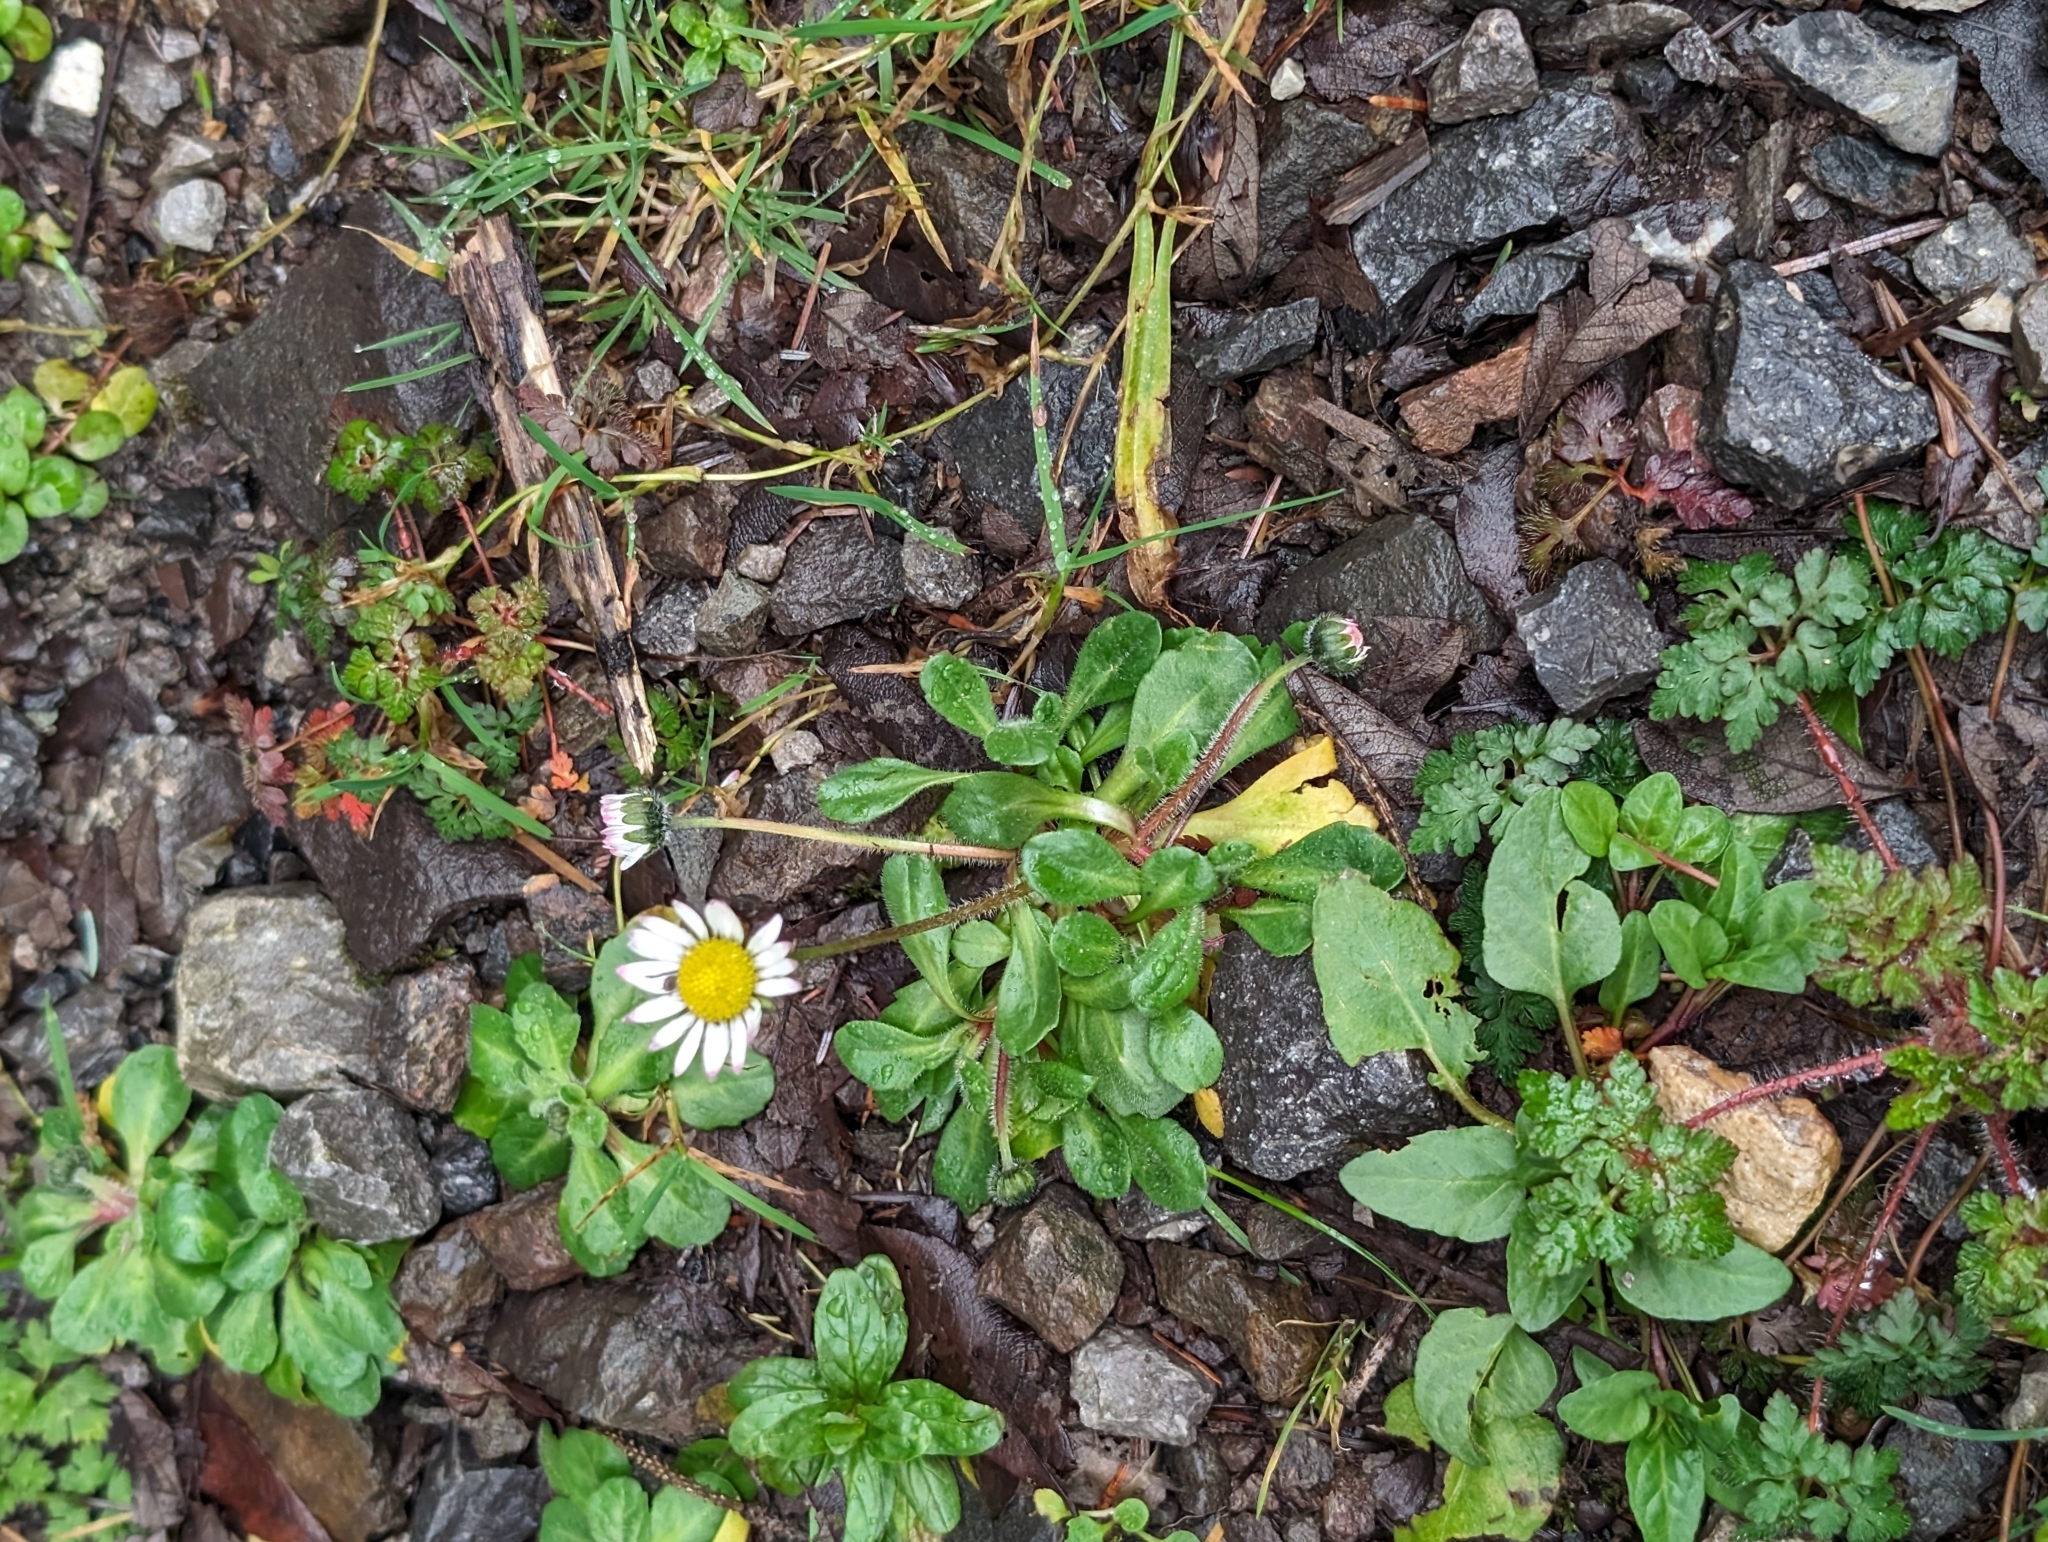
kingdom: Plantae
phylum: Tracheophyta
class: Magnoliopsida
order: Asterales
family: Asteraceae
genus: Bellis
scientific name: Bellis perennis
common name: Lawndaisy
